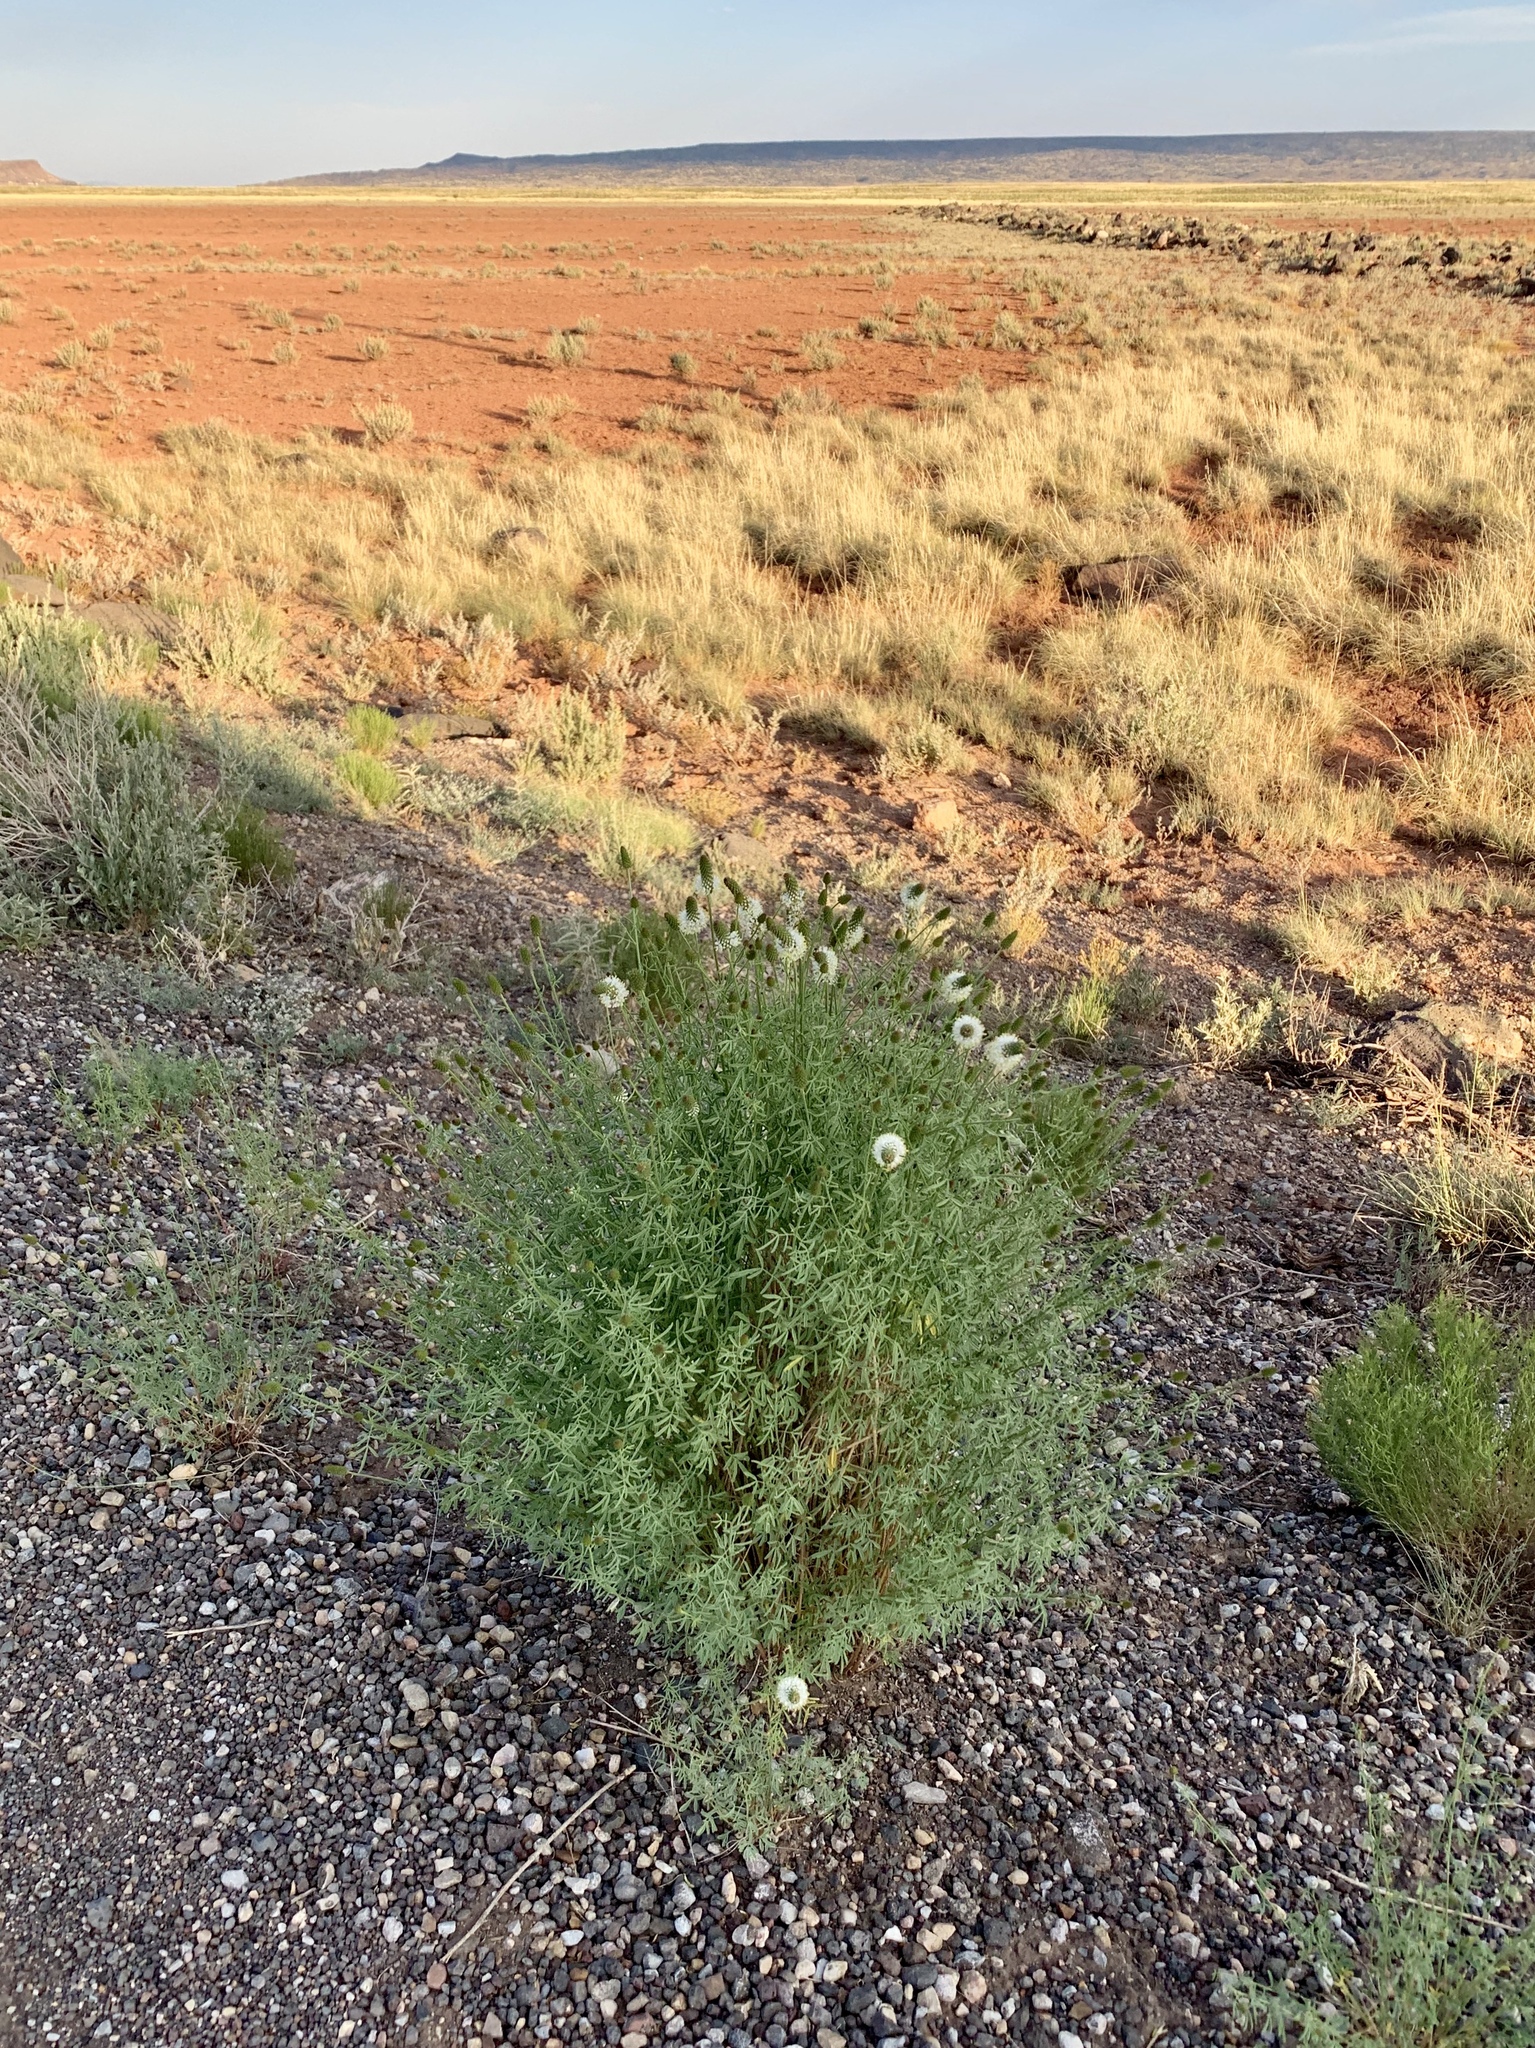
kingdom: Plantae
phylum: Tracheophyta
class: Magnoliopsida
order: Fabales
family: Fabaceae
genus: Dalea
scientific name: Dalea candida
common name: White prairie-clover
